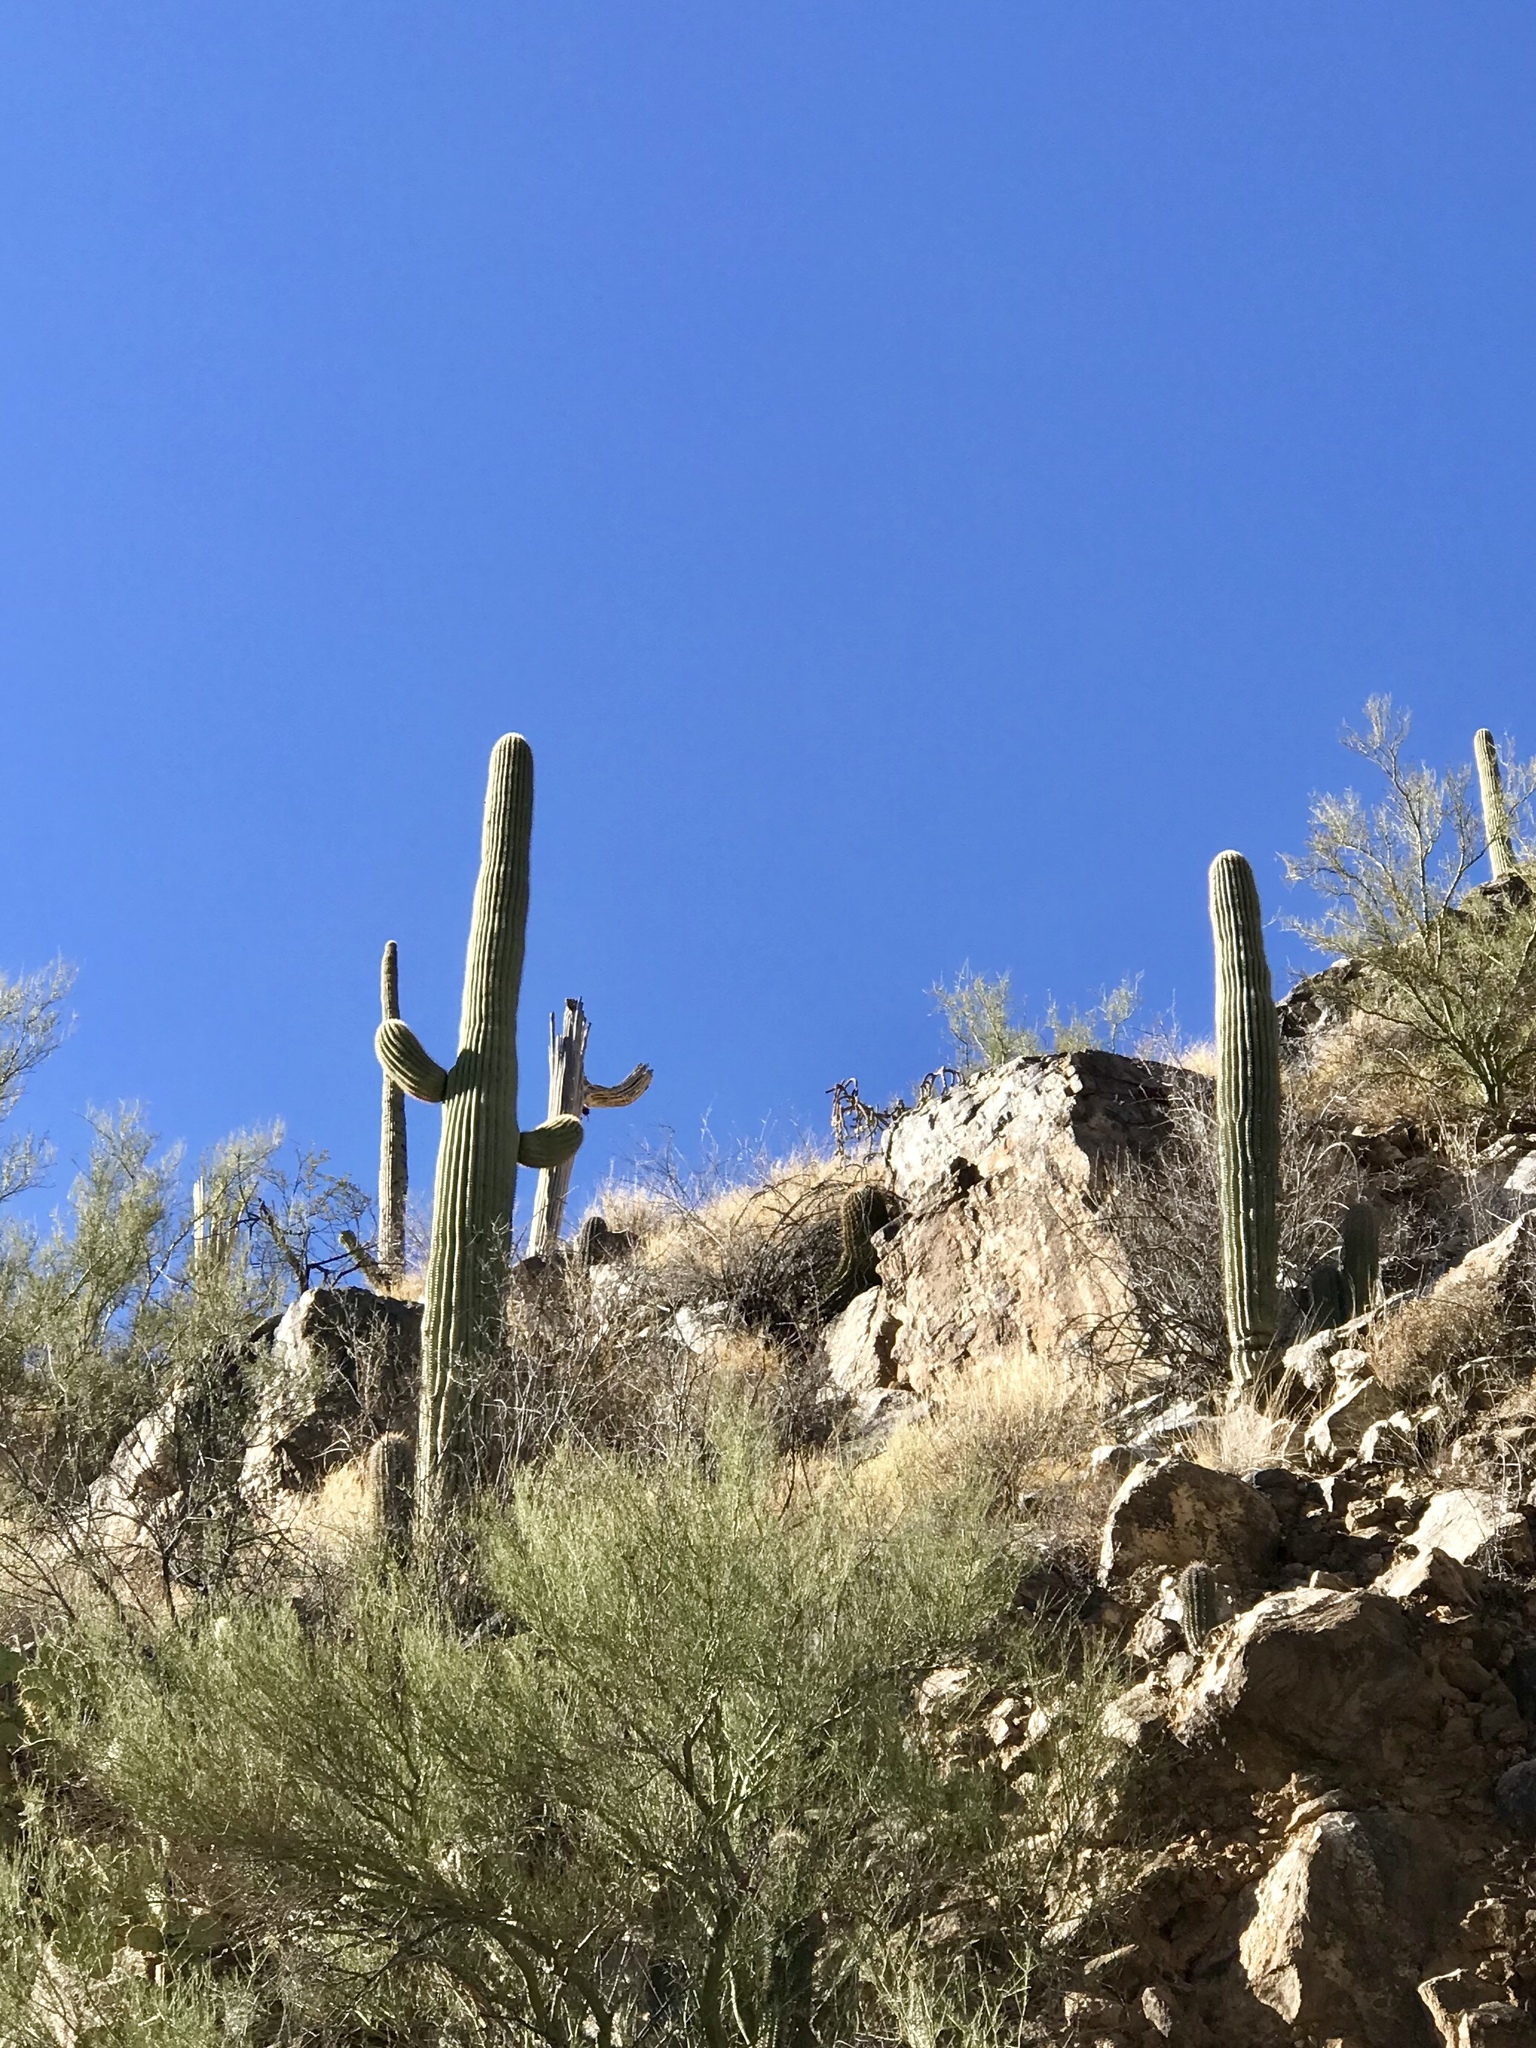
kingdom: Plantae
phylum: Tracheophyta
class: Magnoliopsida
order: Caryophyllales
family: Cactaceae
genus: Carnegiea
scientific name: Carnegiea gigantea
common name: Saguaro
